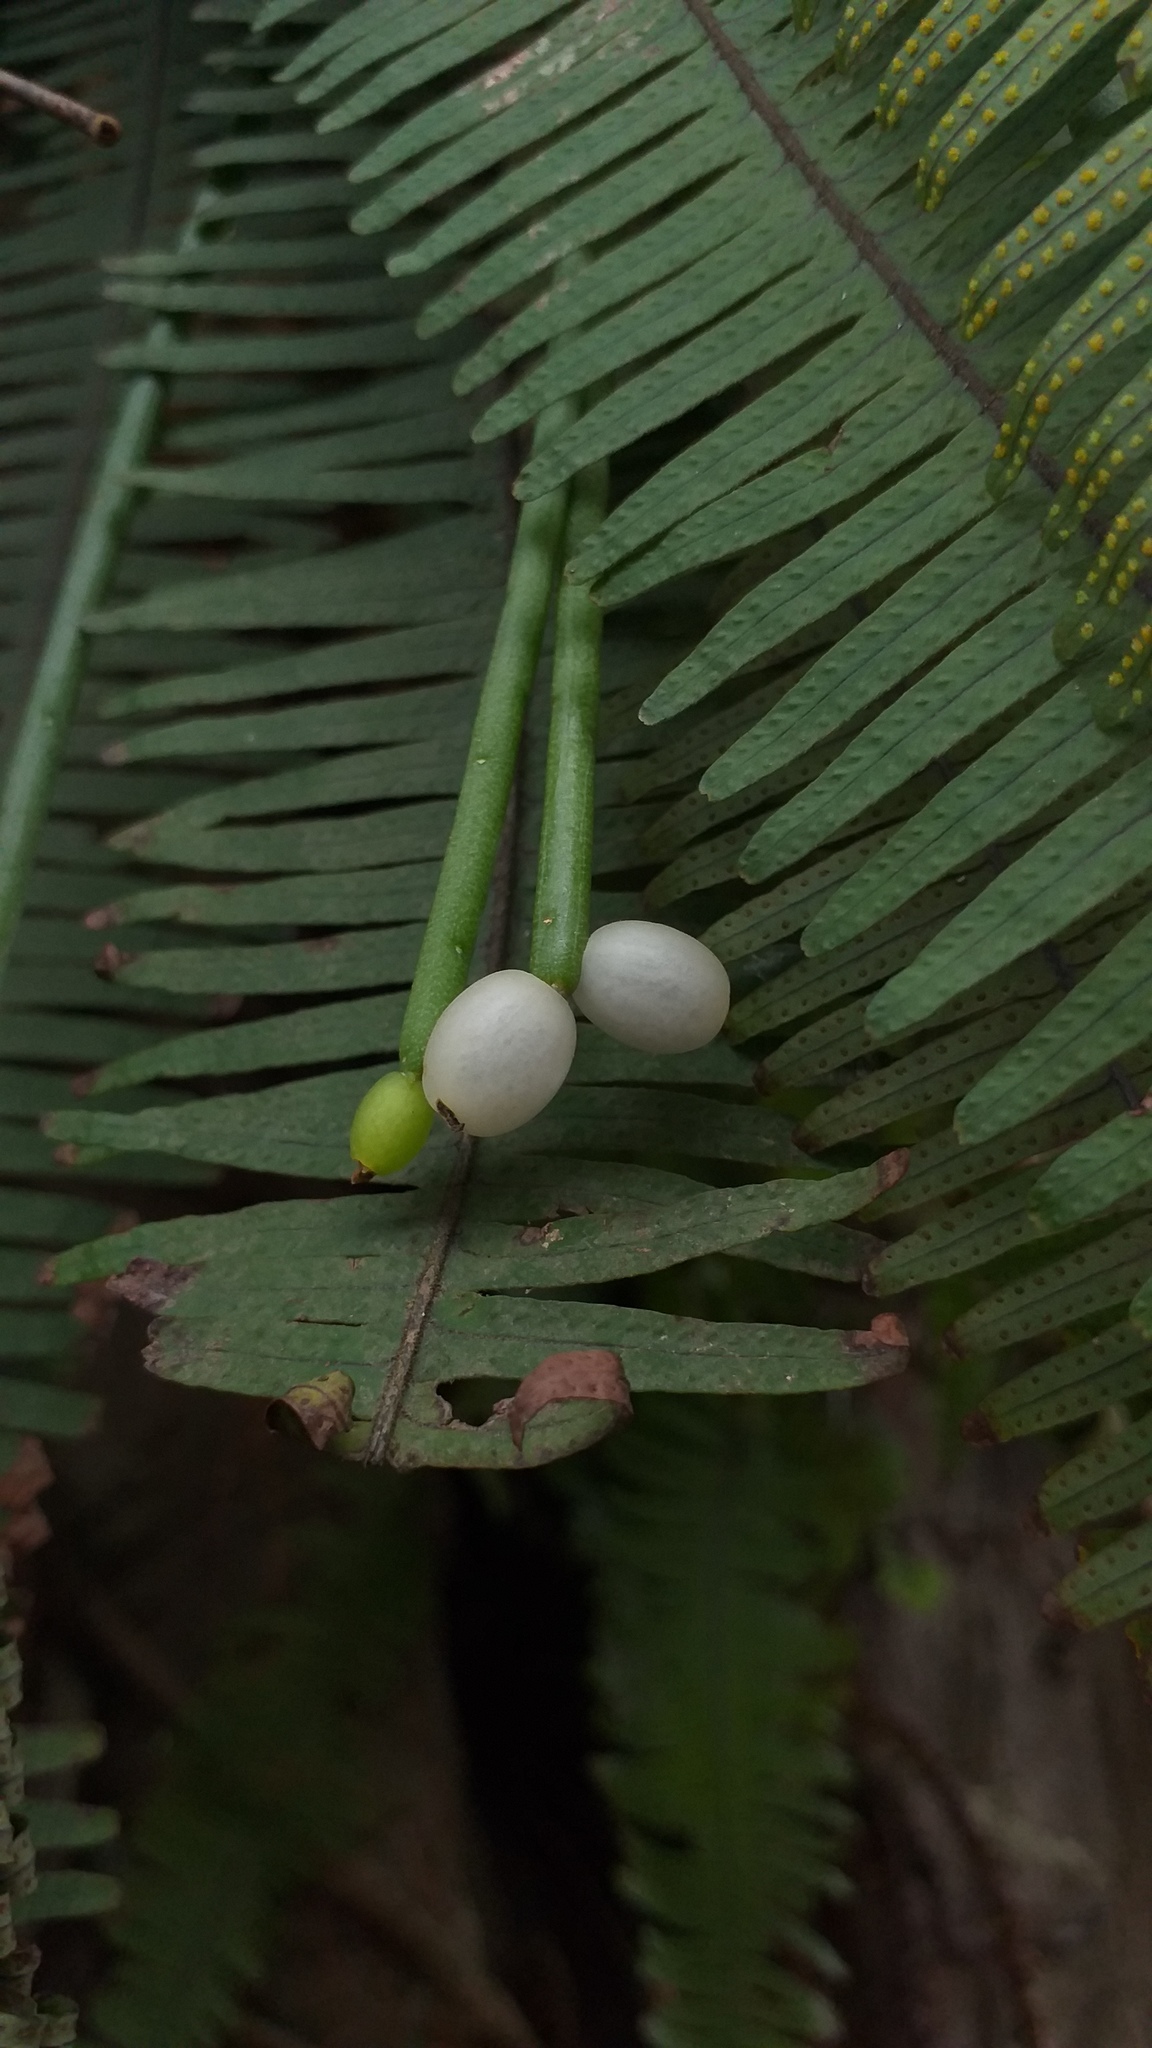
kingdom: Plantae
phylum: Tracheophyta
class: Magnoliopsida
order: Caryophyllales
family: Cactaceae
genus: Rhipsalis
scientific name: Rhipsalis baccifera
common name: Mistletoe cactus
